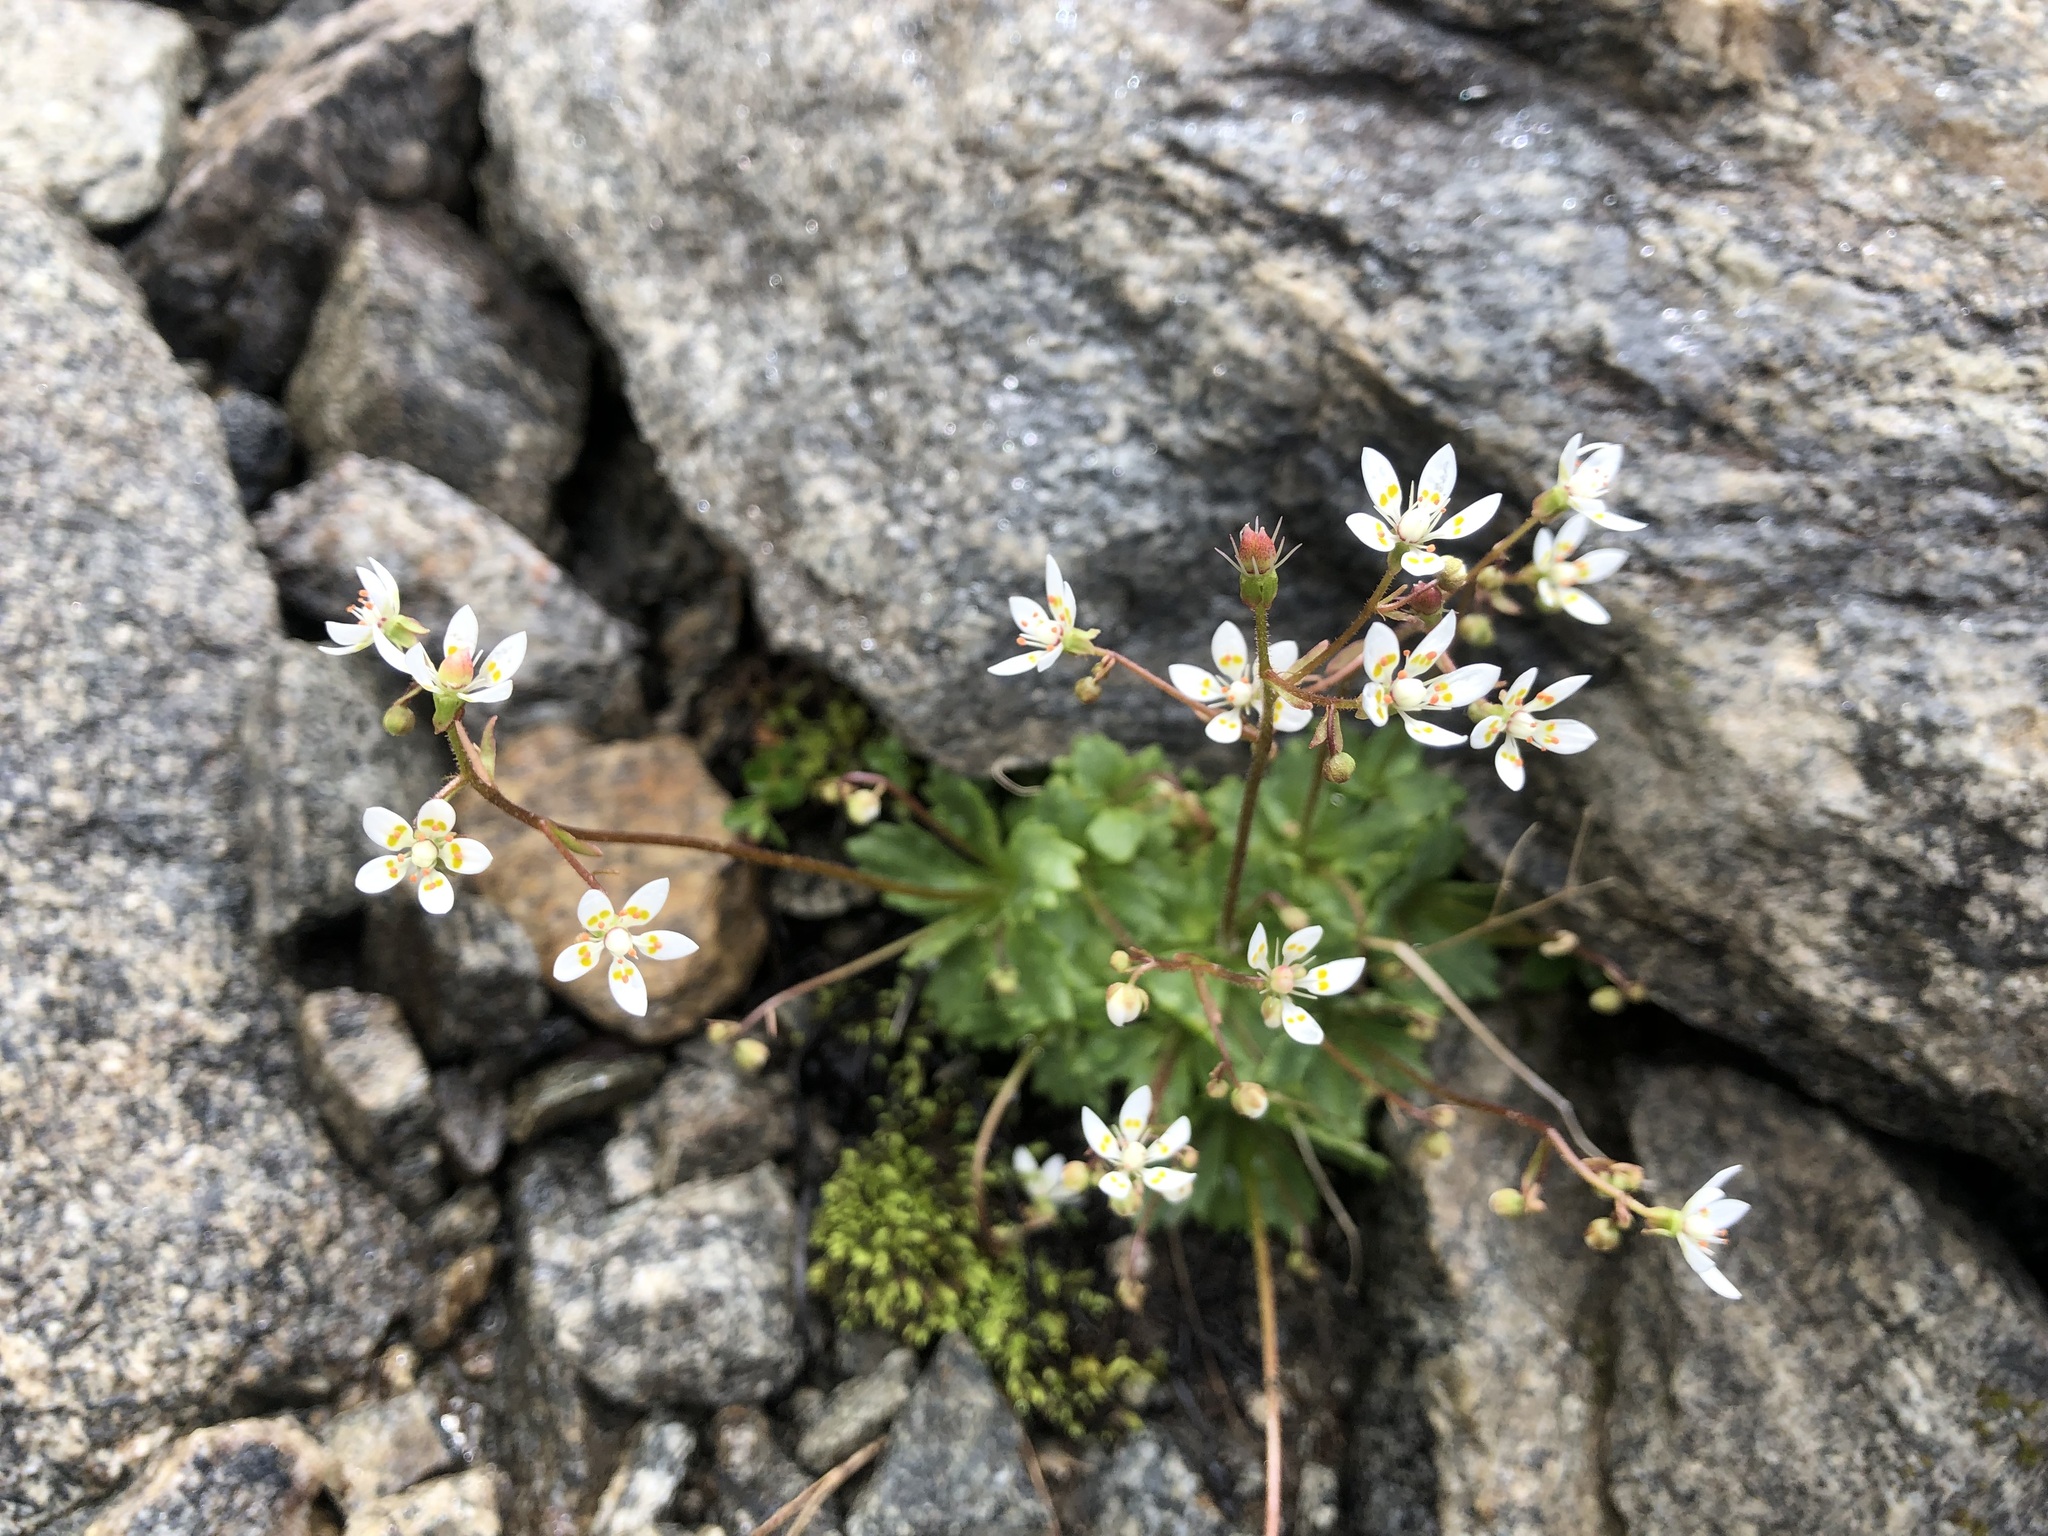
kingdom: Plantae
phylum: Tracheophyta
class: Magnoliopsida
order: Saxifragales
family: Saxifragaceae
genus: Micranthes
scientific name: Micranthes stellaris
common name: Starry saxifrage
